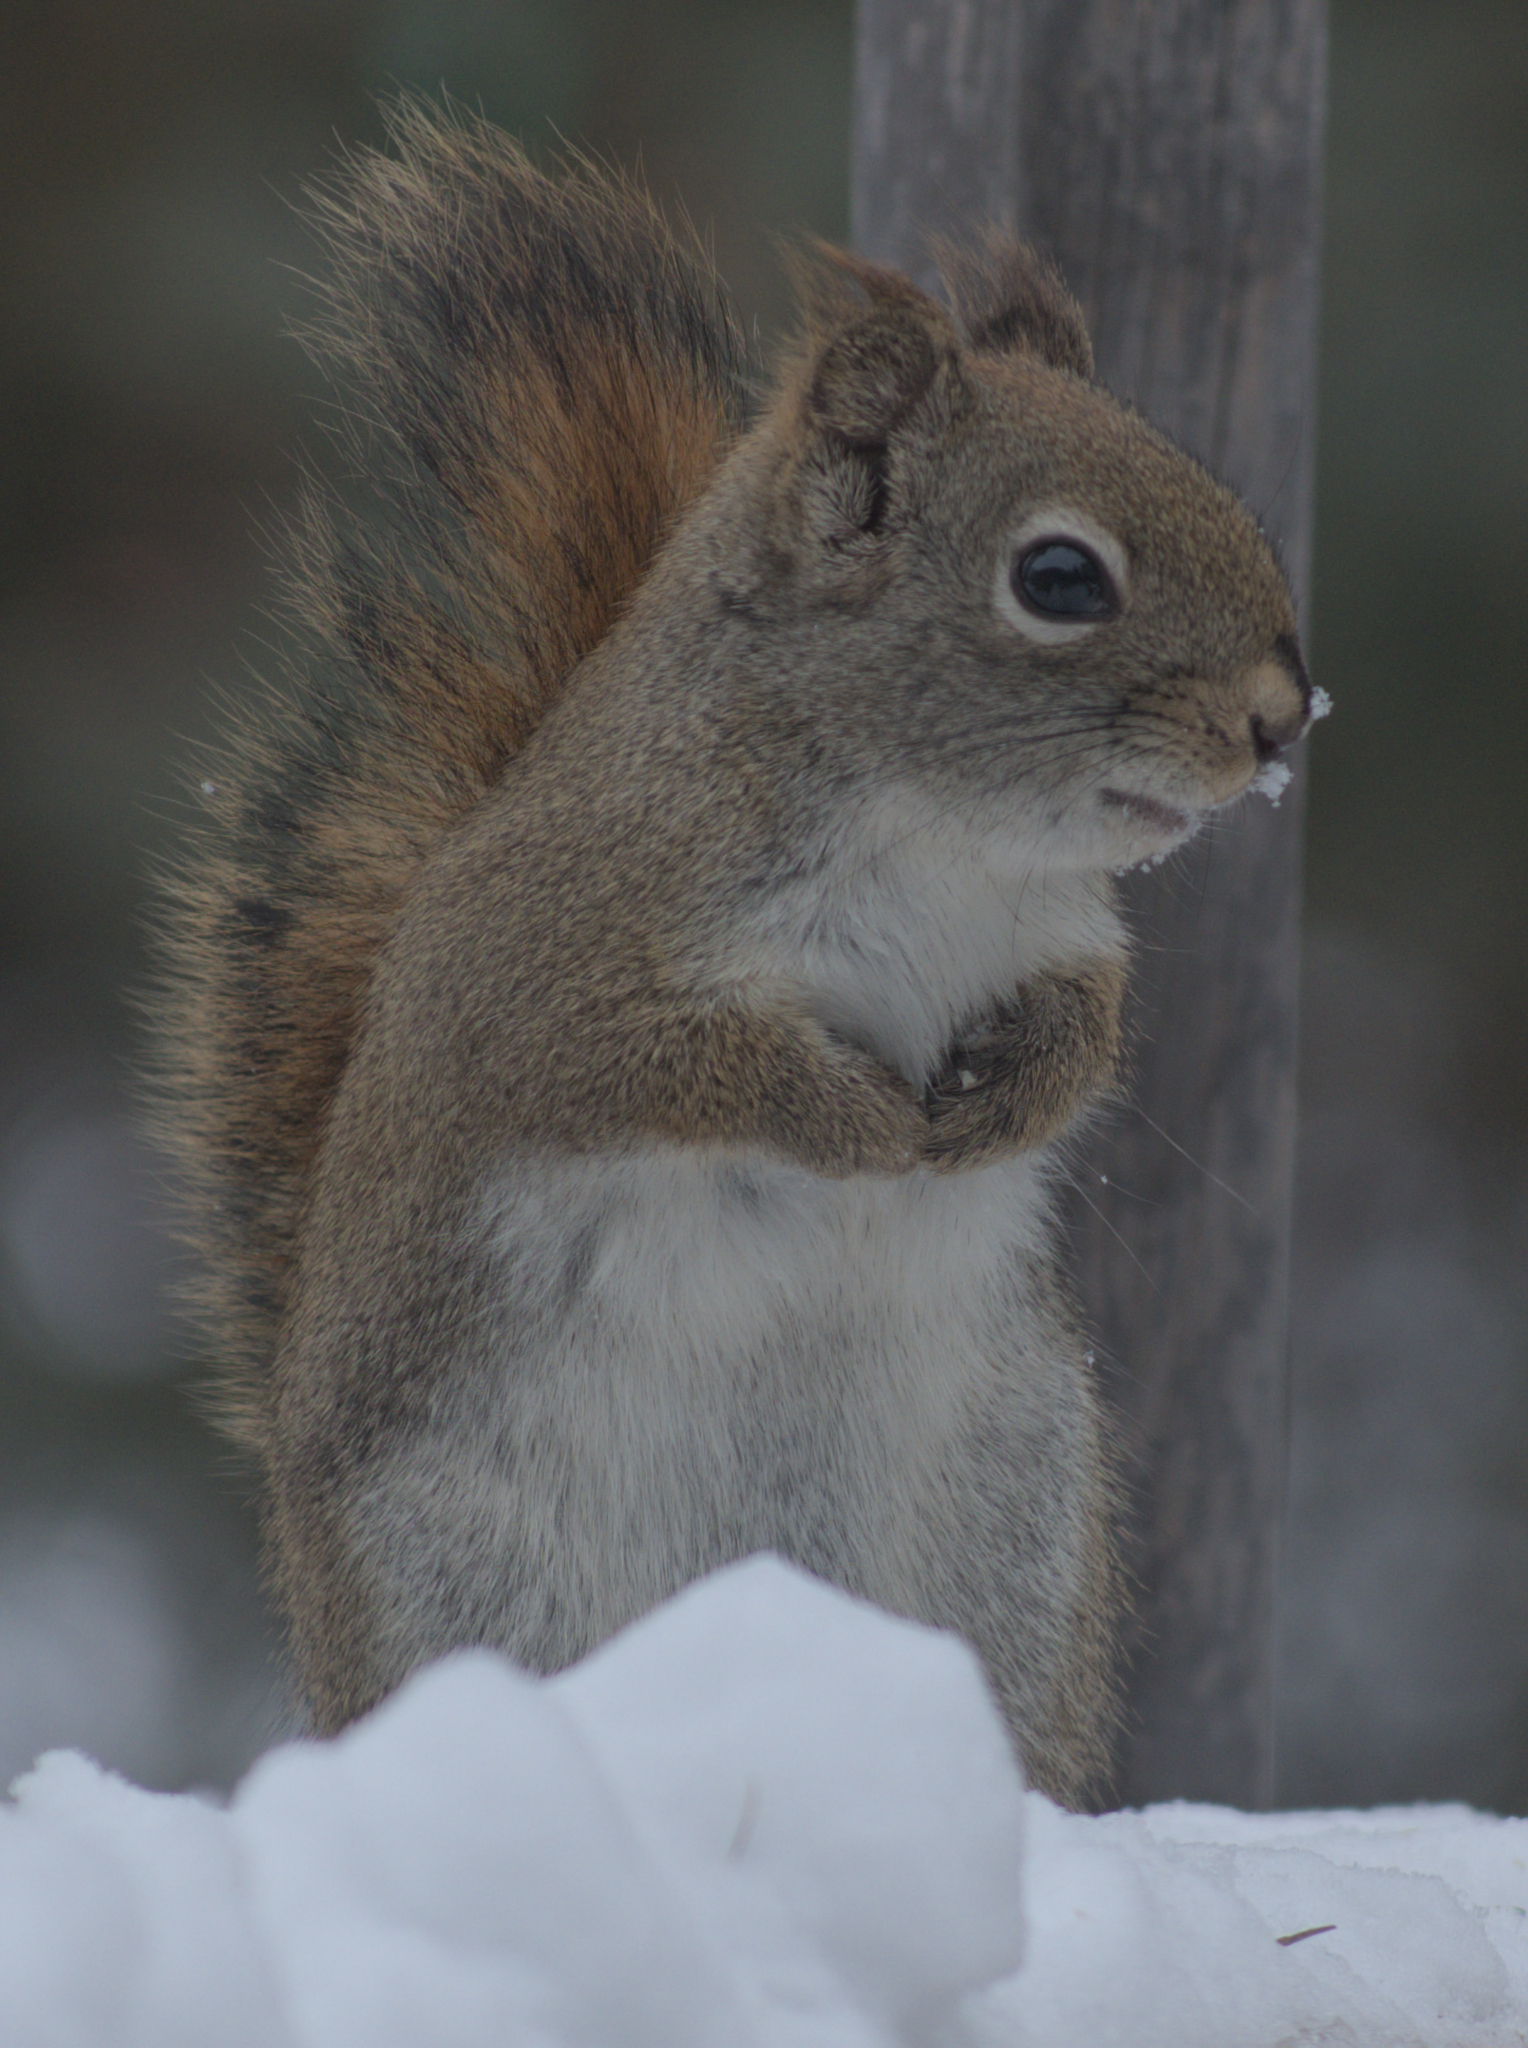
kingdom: Animalia
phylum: Chordata
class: Mammalia
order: Rodentia
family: Sciuridae
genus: Tamiasciurus
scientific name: Tamiasciurus hudsonicus
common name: Red squirrel
